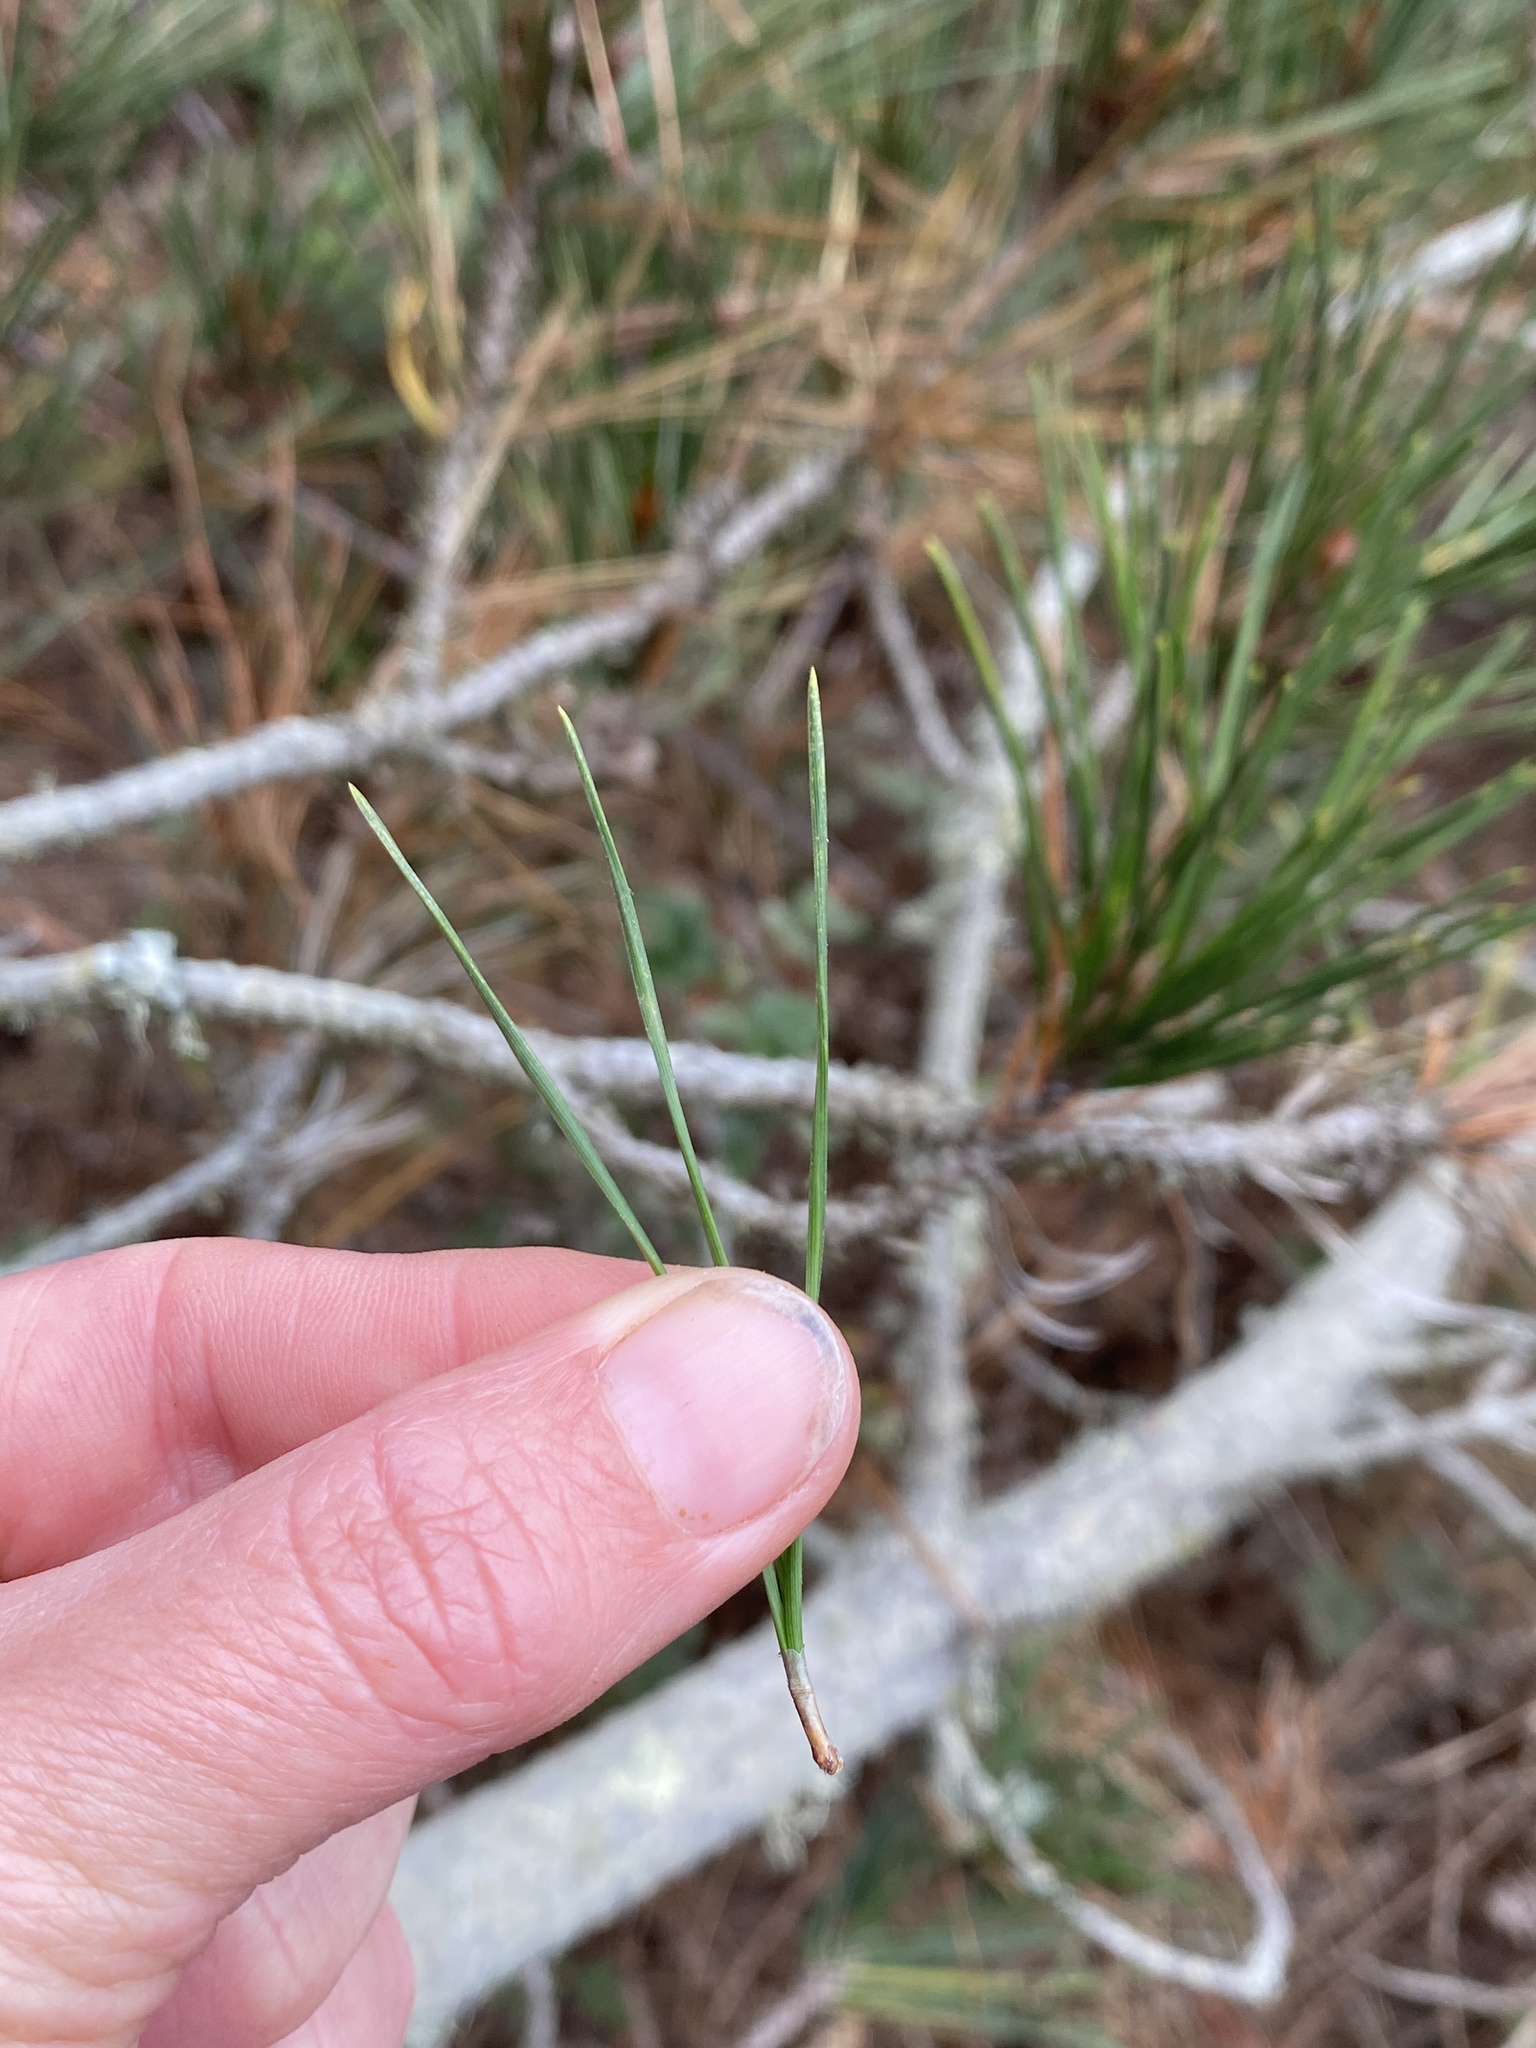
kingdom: Fungi
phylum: Basidiomycota
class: Pucciniomycetes
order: Pucciniales
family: Cronartiaceae
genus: Cronartium
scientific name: Cronartium harknessii
